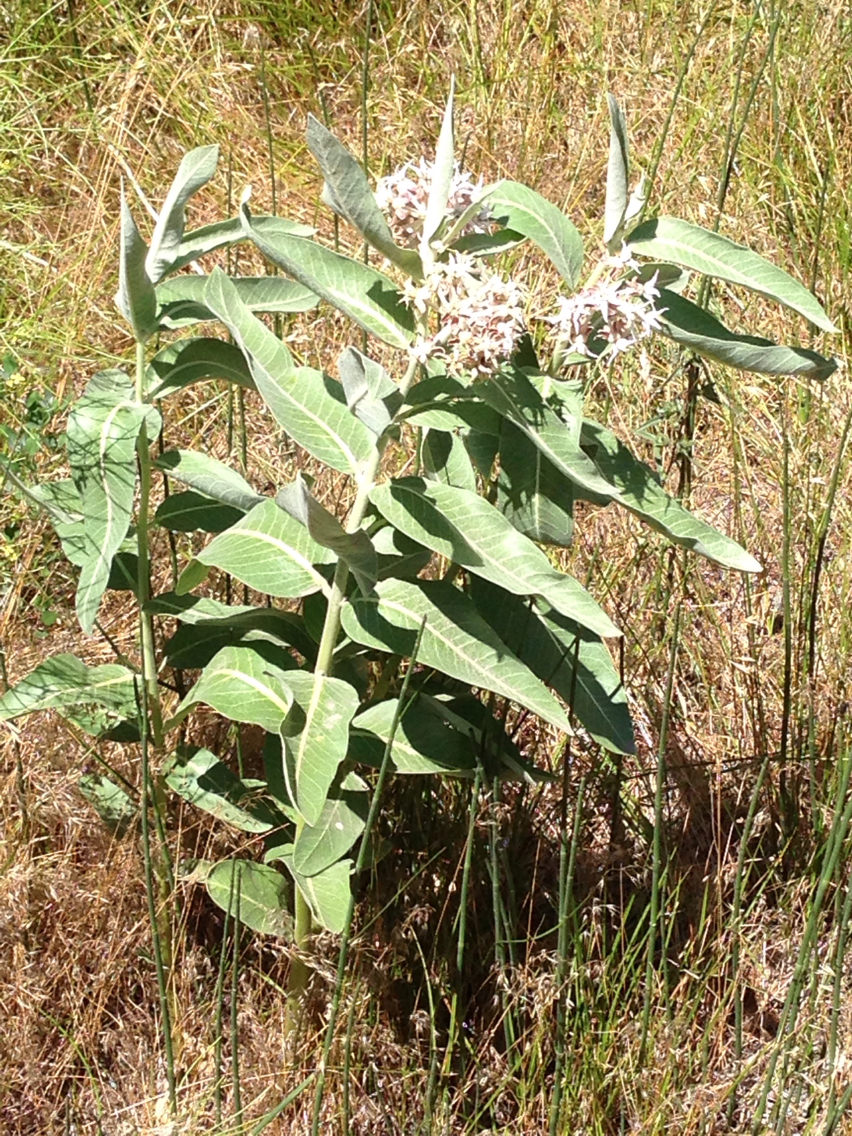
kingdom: Plantae
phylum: Tracheophyta
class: Magnoliopsida
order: Gentianales
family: Apocynaceae
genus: Asclepias
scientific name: Asclepias speciosa
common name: Showy milkweed
